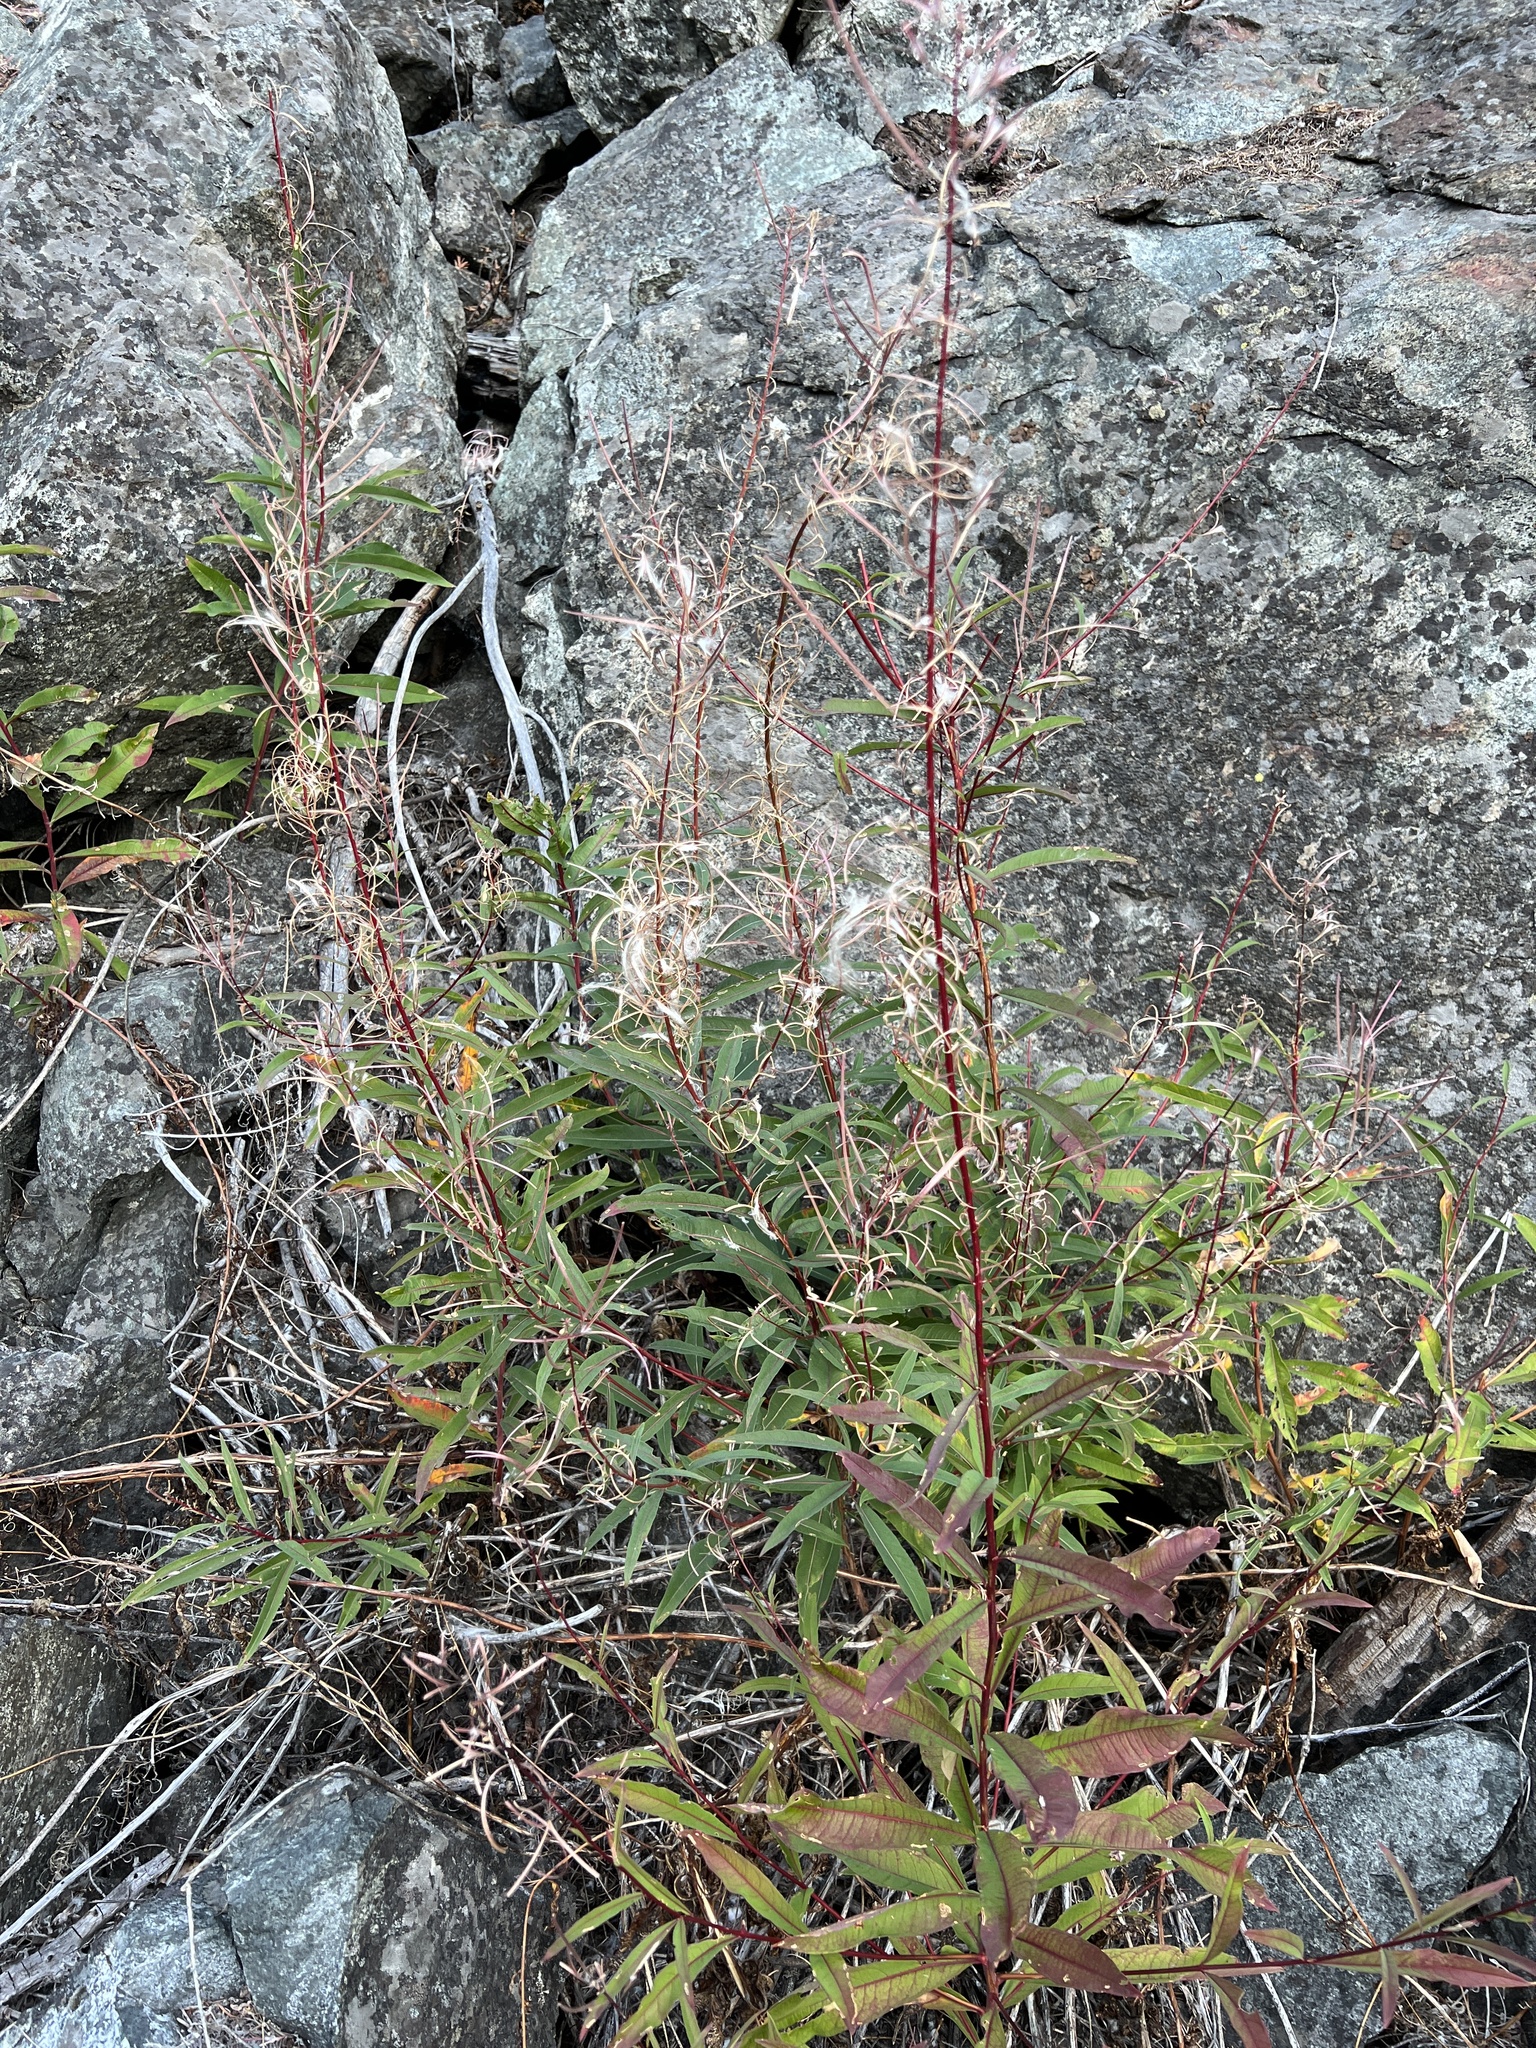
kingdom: Plantae
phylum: Tracheophyta
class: Magnoliopsida
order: Myrtales
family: Onagraceae
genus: Chamaenerion
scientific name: Chamaenerion angustifolium
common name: Fireweed
